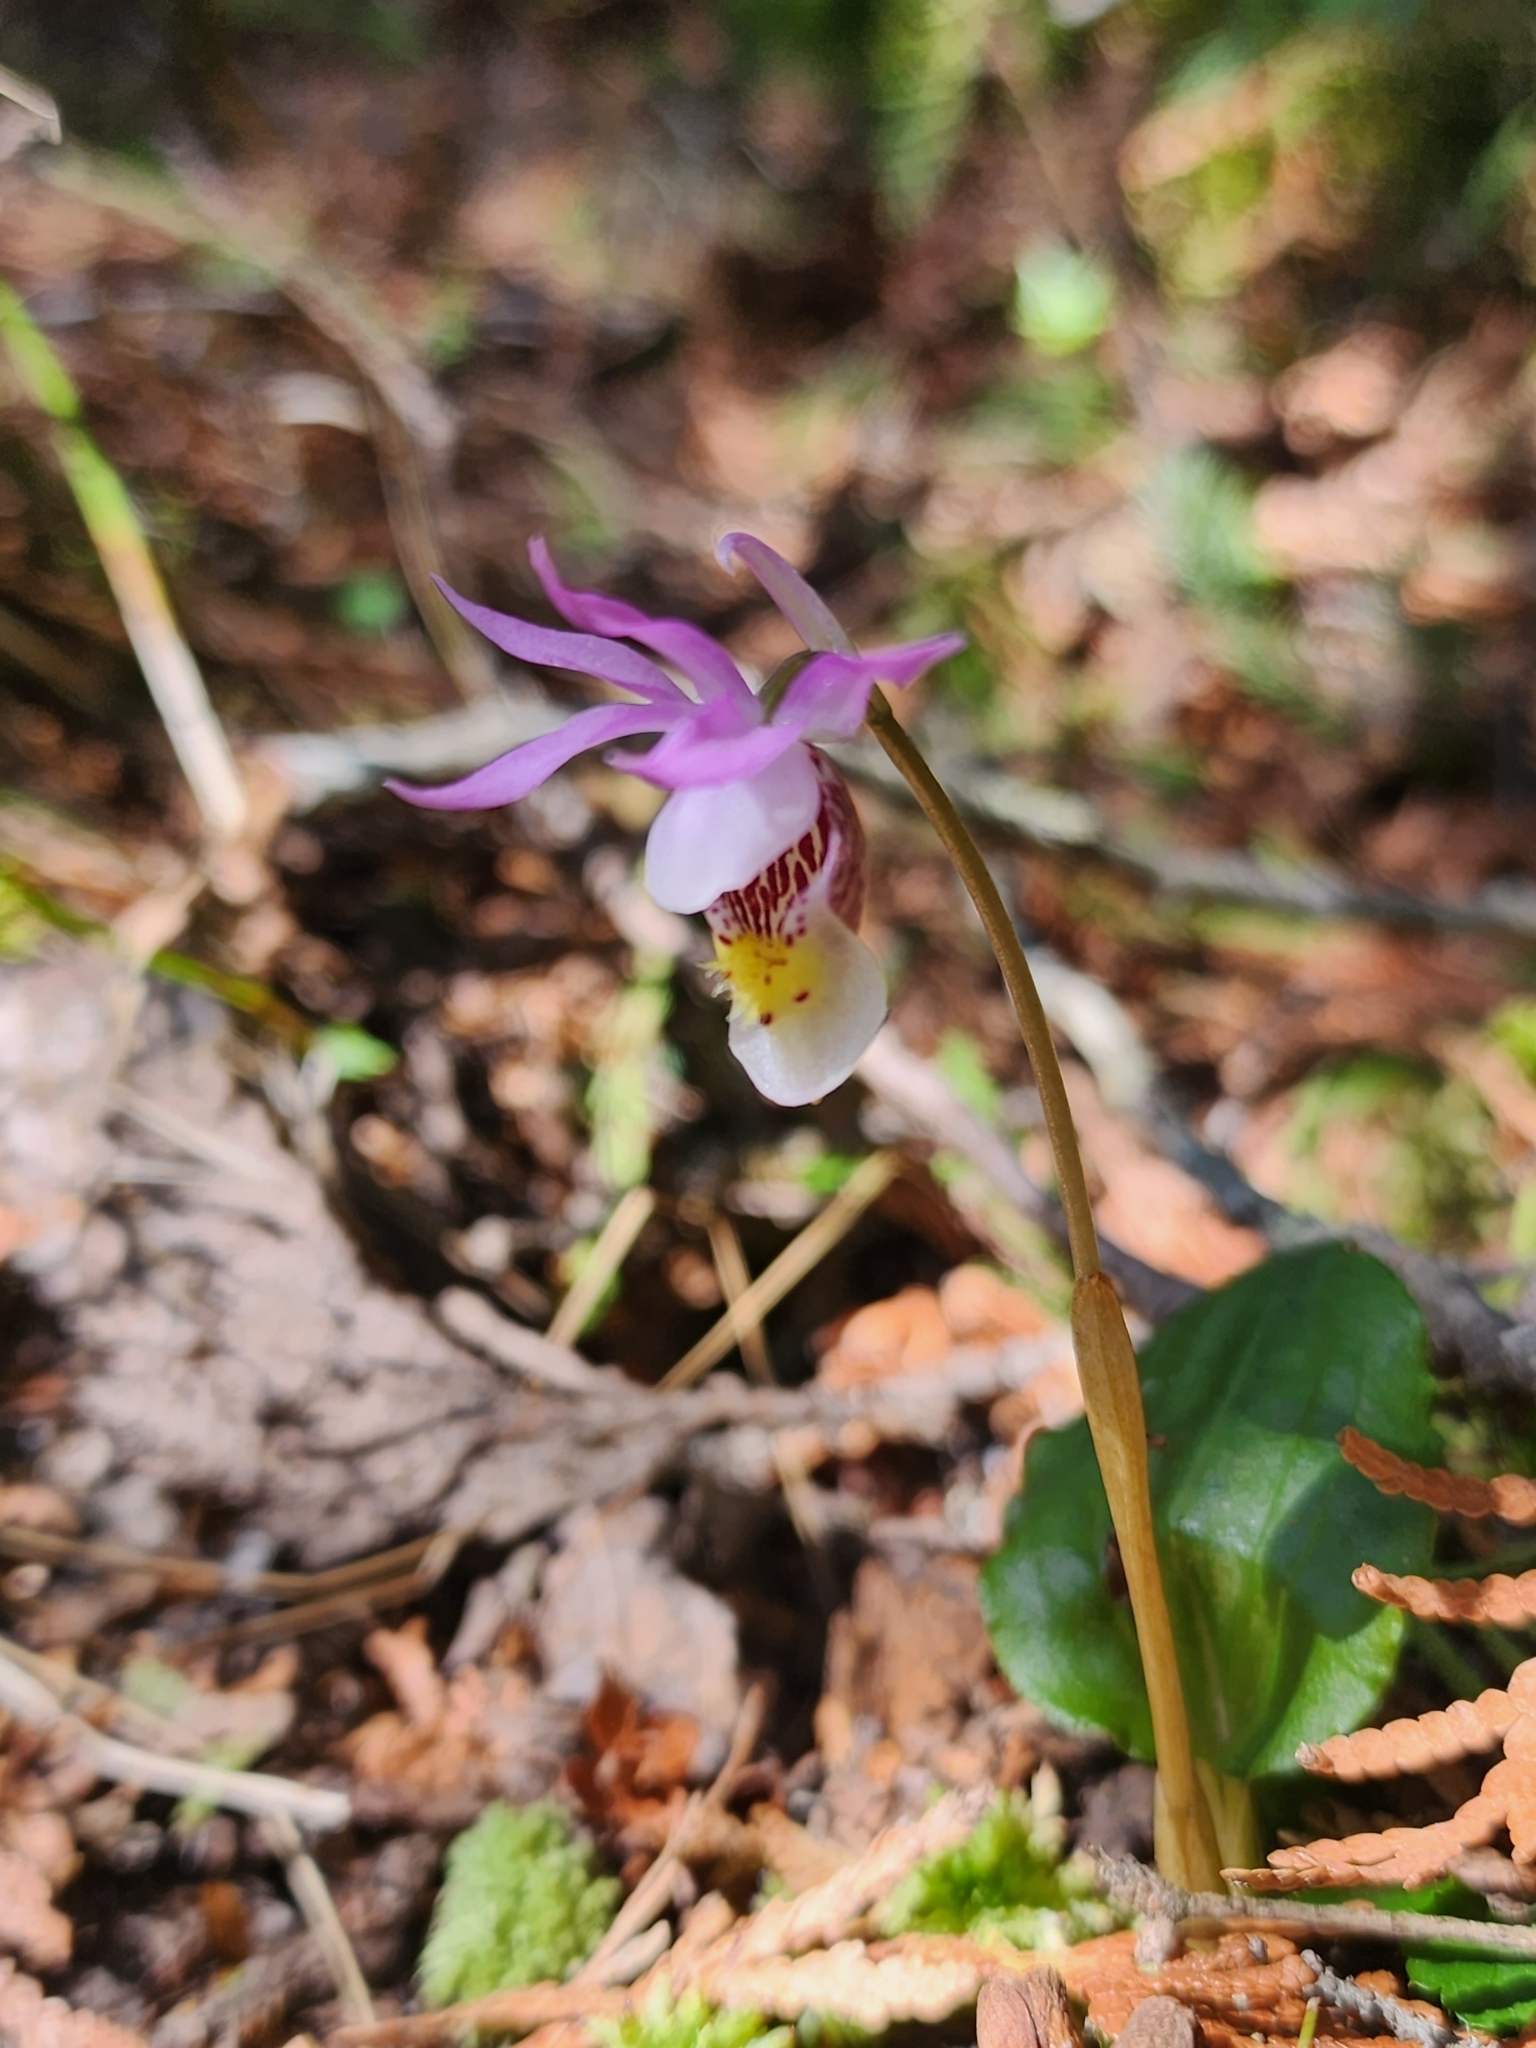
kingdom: Plantae
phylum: Tracheophyta
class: Liliopsida
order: Asparagales
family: Orchidaceae
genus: Calypso
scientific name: Calypso bulbosa
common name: Calypso
